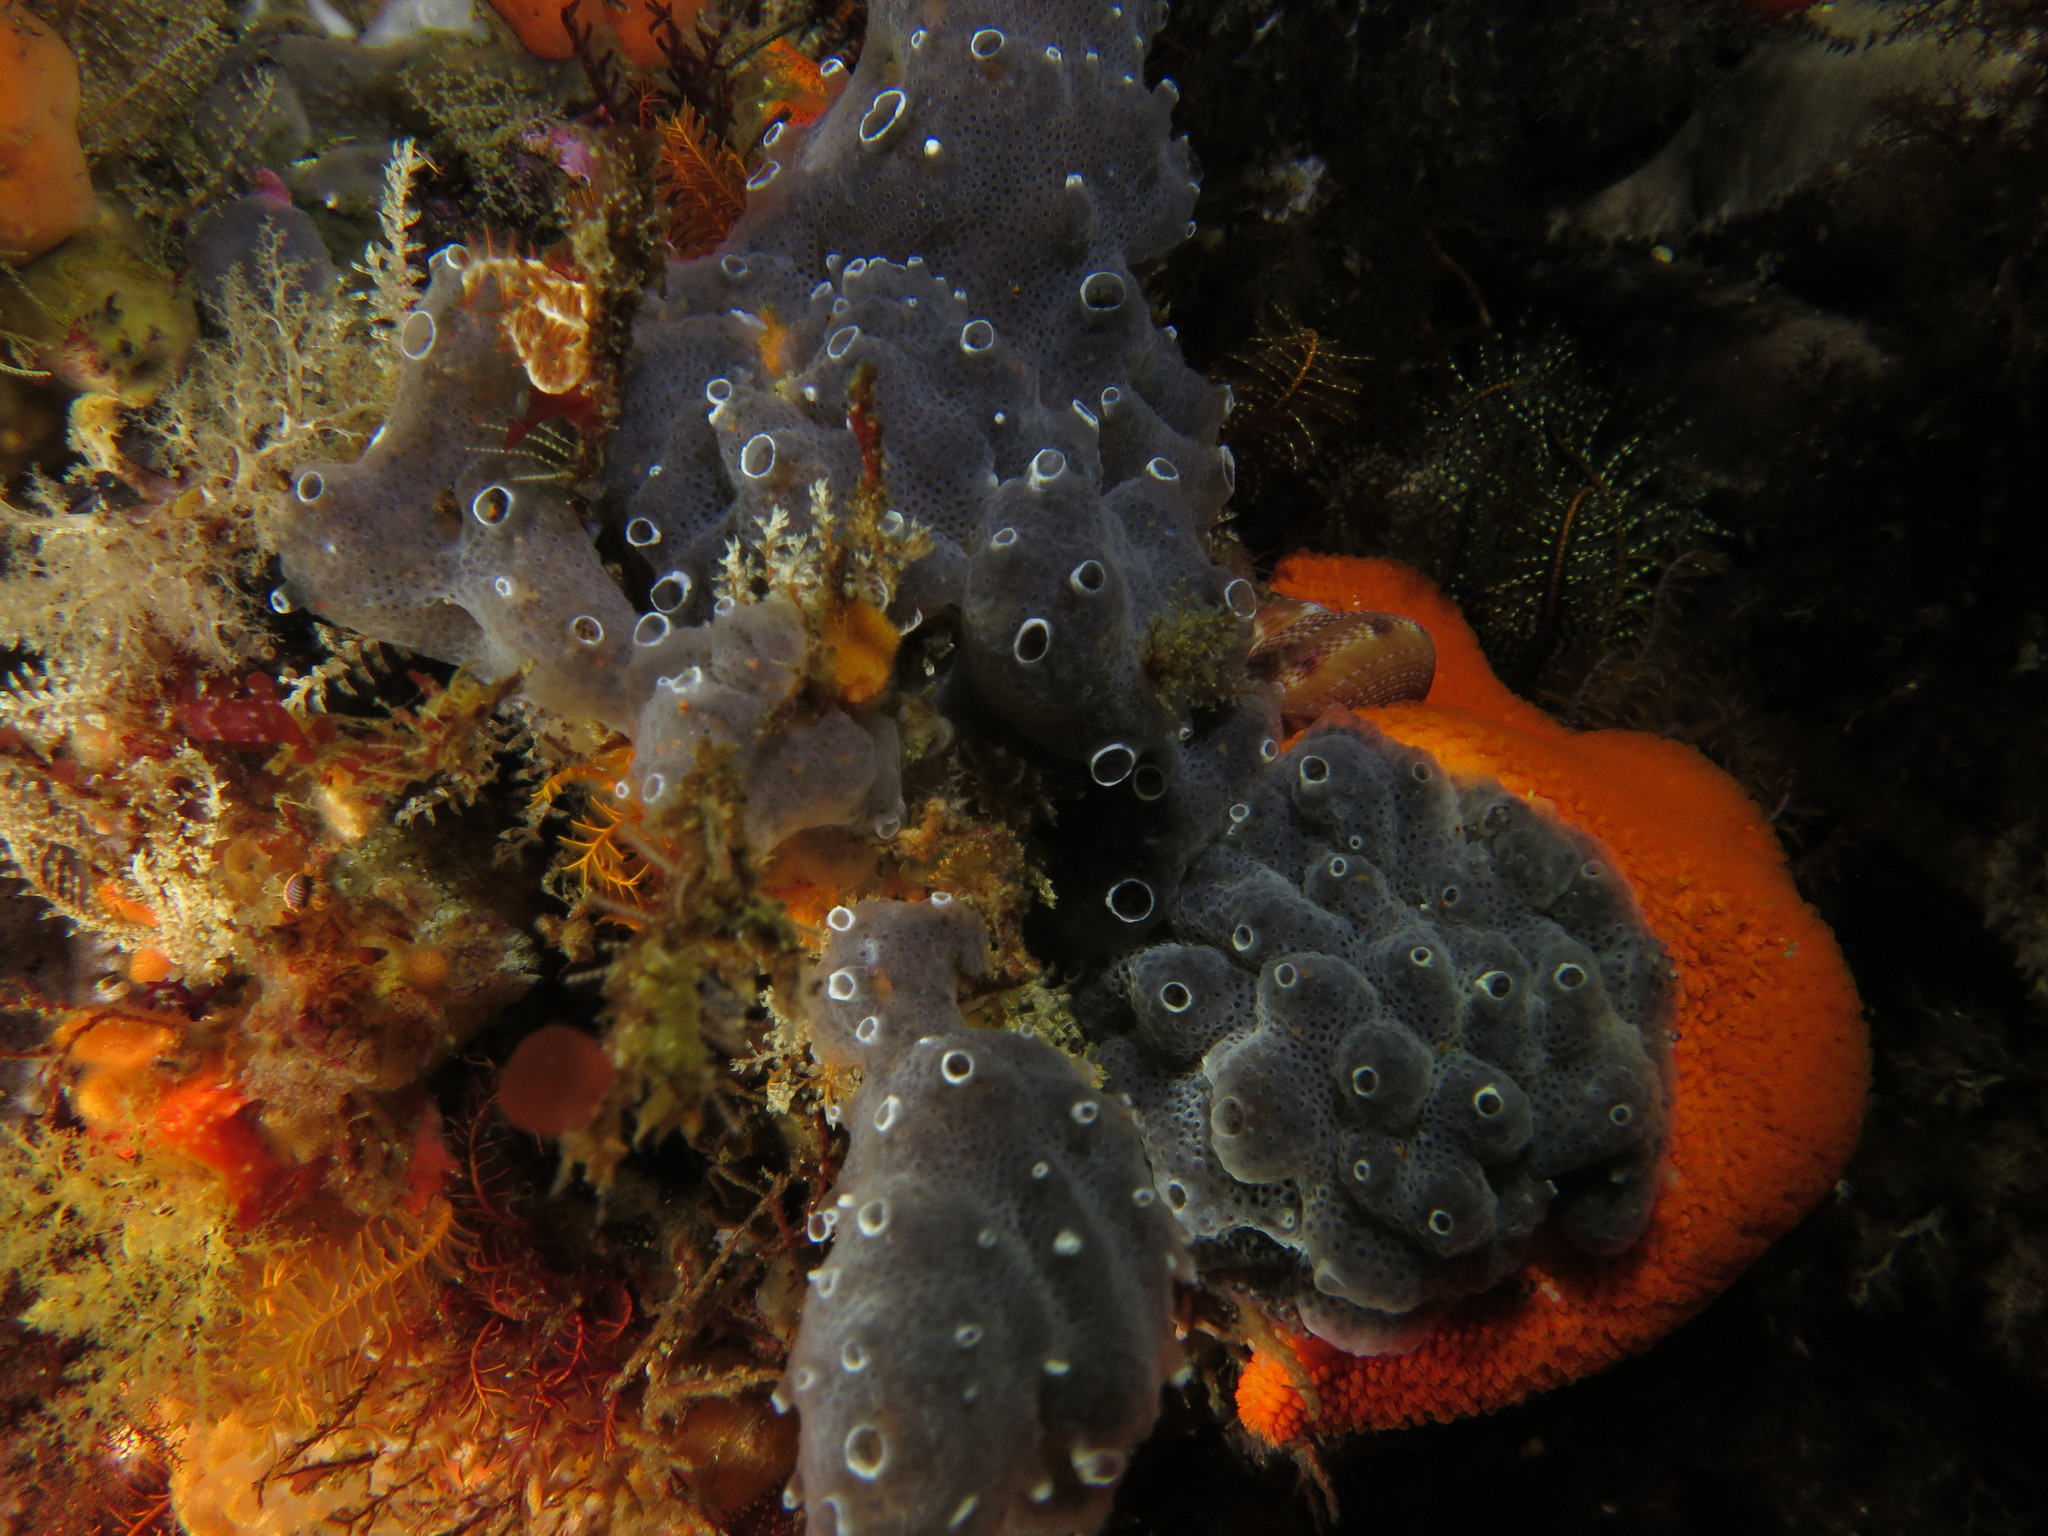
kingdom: Animalia
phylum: Porifera
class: Demospongiae
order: Haplosclerida
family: Chalinidae
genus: Haliclona
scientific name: Haliclona stilensis
